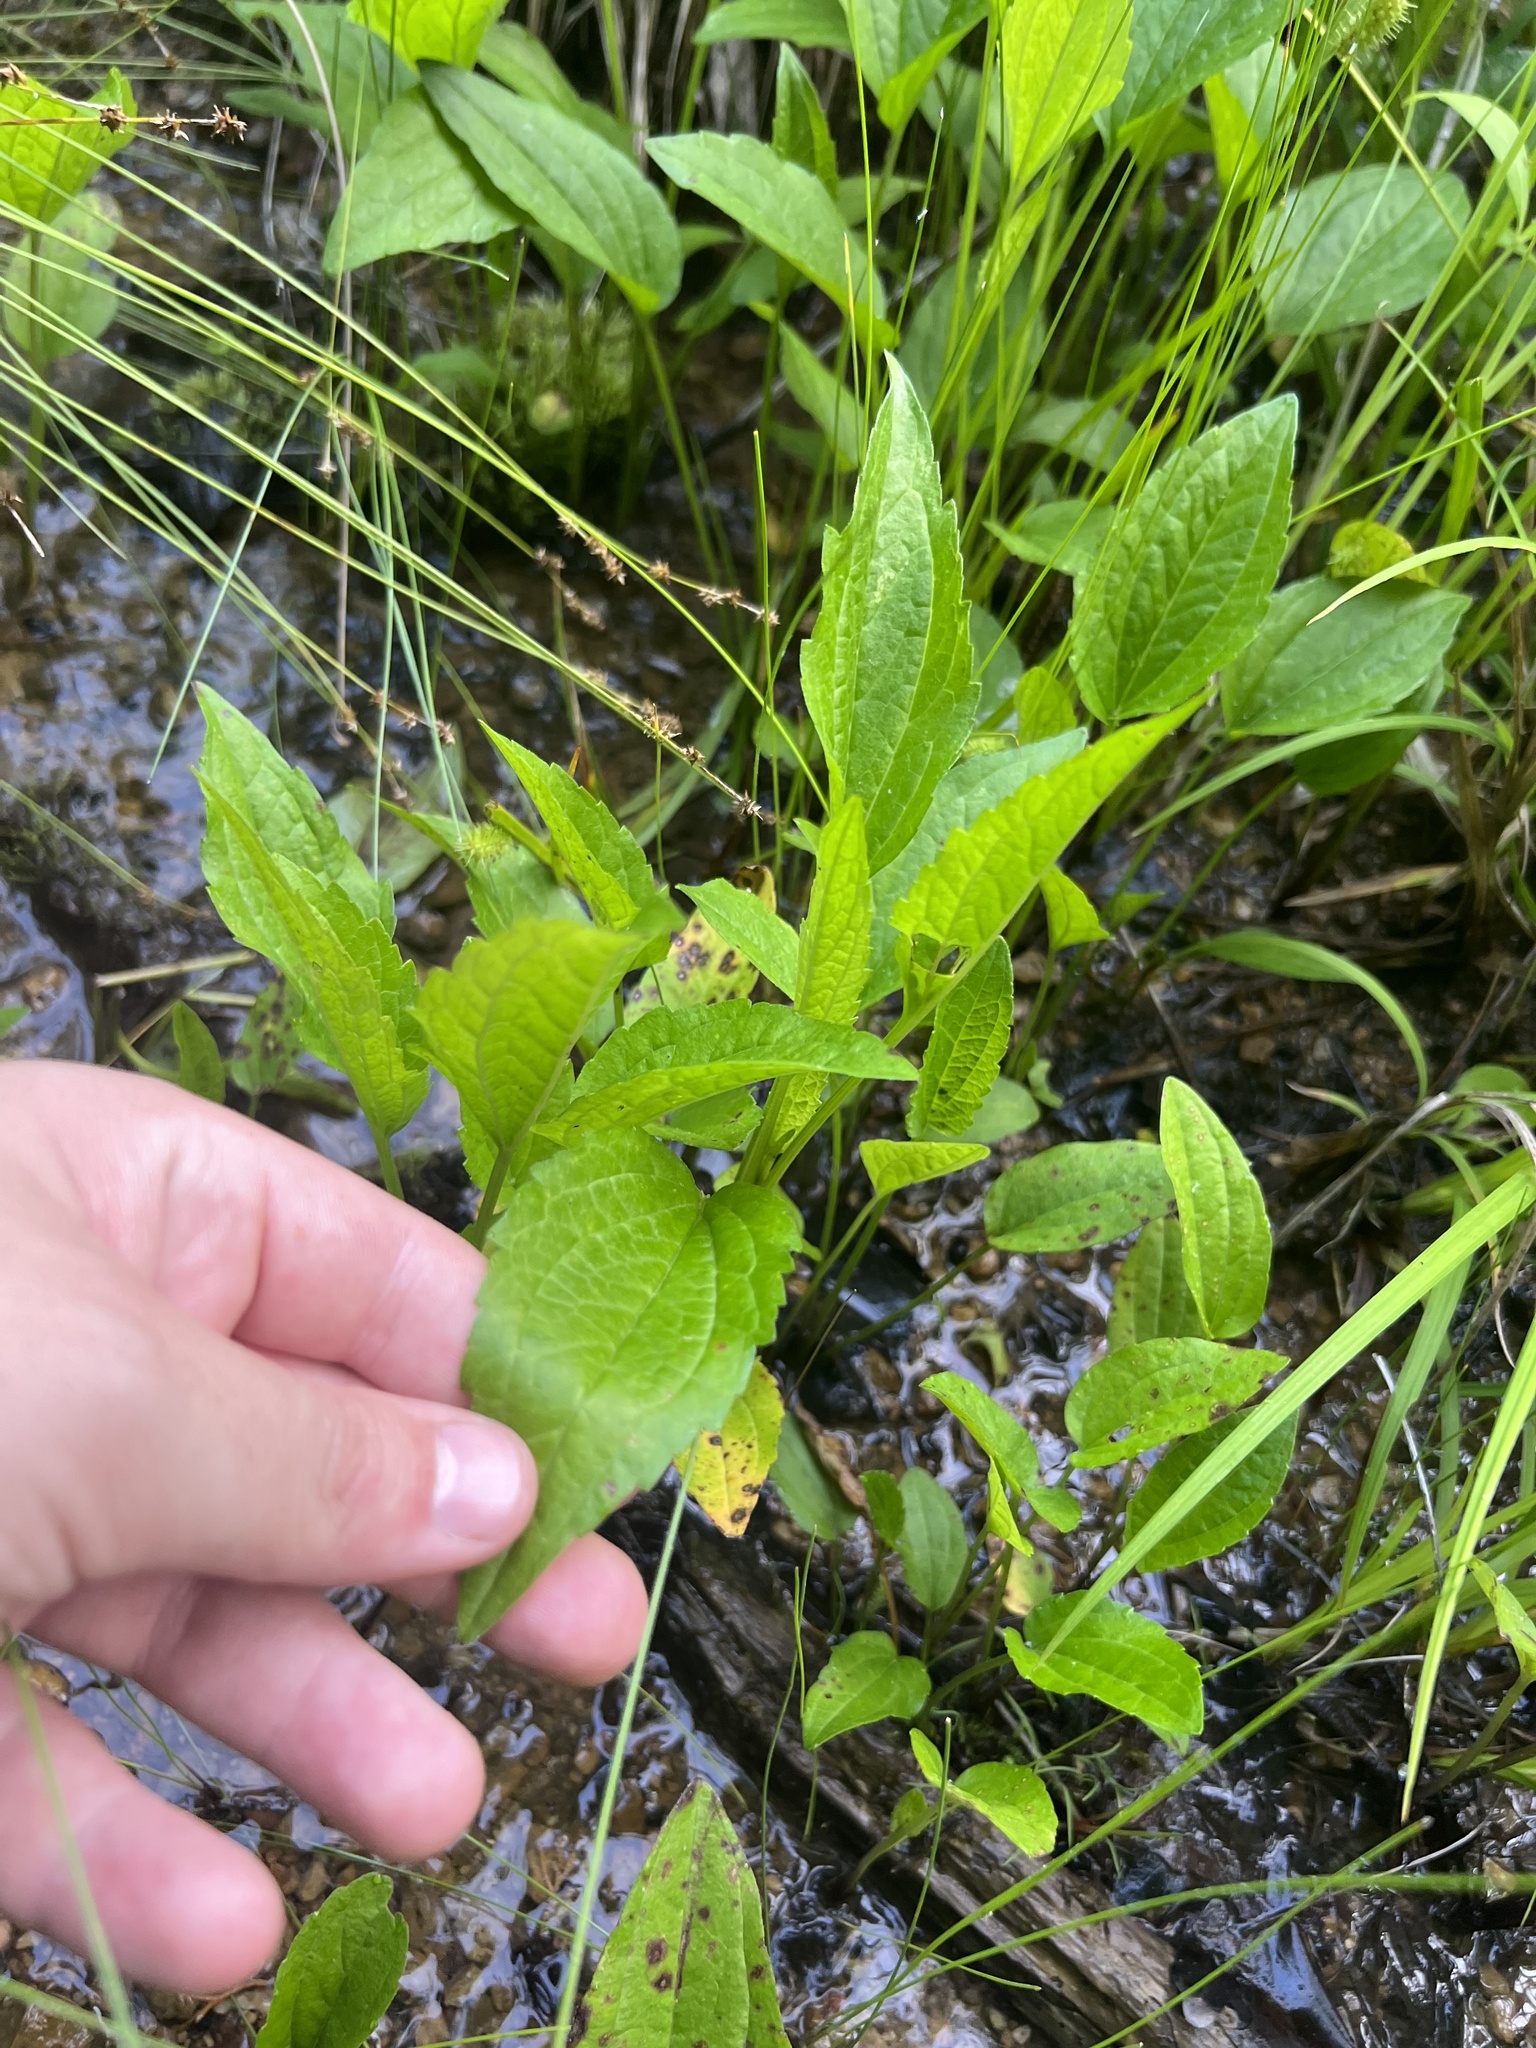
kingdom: Plantae
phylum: Tracheophyta
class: Magnoliopsida
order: Asterales
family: Asteraceae
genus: Rudbeckia
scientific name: Rudbeckia palustris
